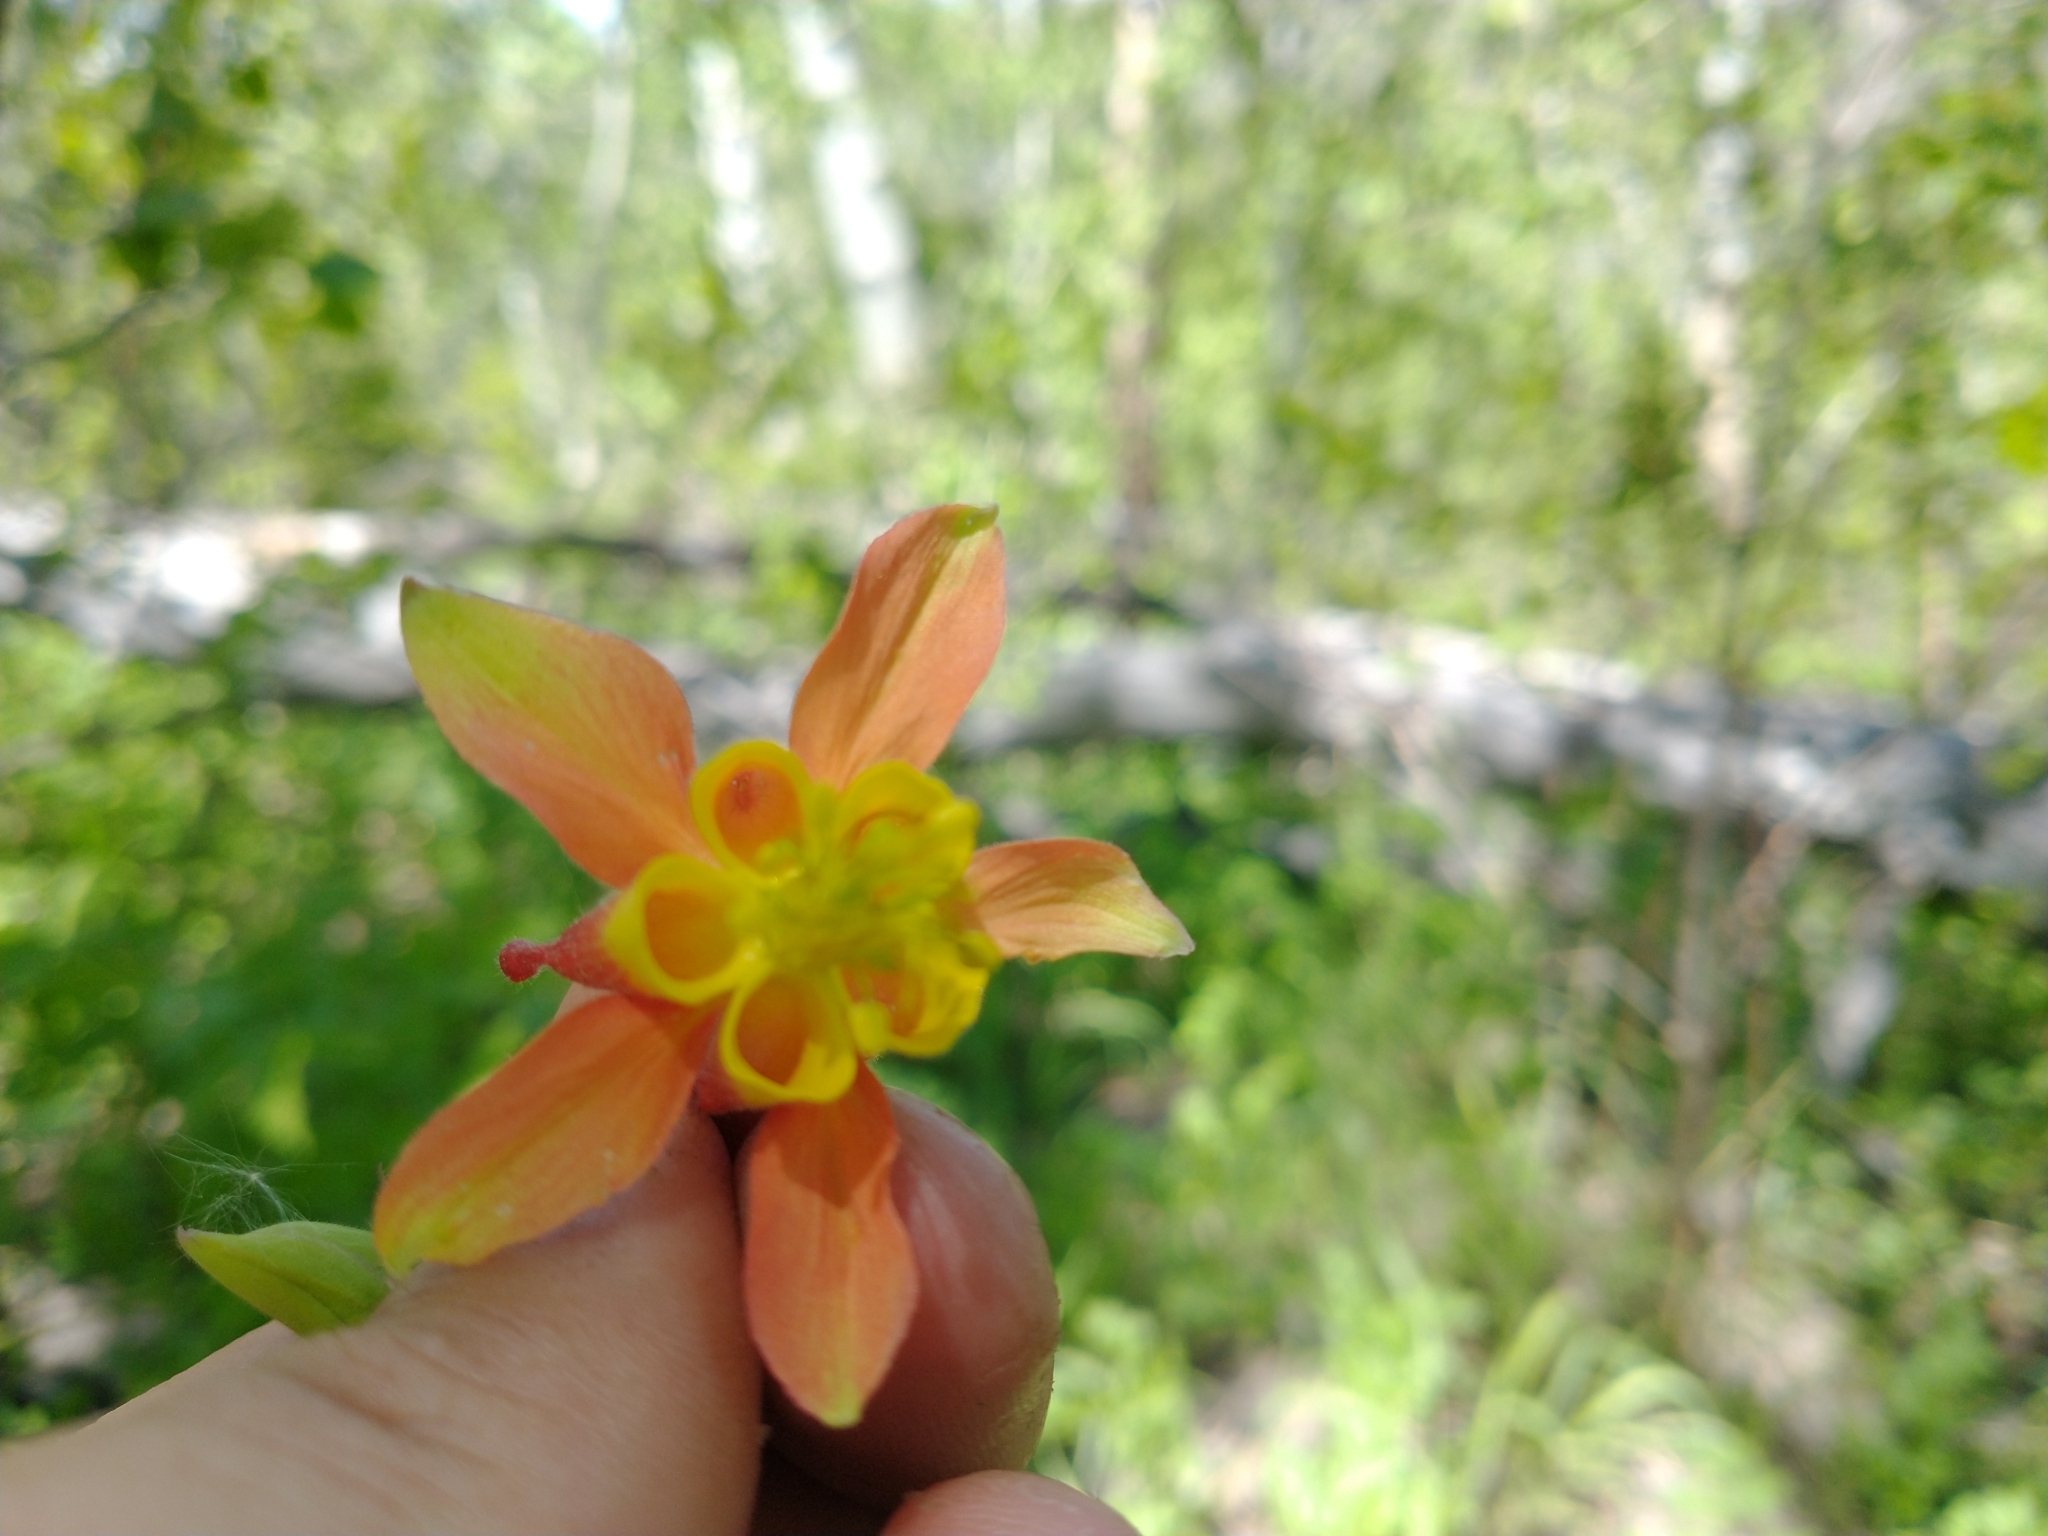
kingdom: Plantae
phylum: Tracheophyta
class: Magnoliopsida
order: Ranunculales
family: Ranunculaceae
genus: Aquilegia
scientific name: Aquilegia formosa
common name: Sitka columbine
